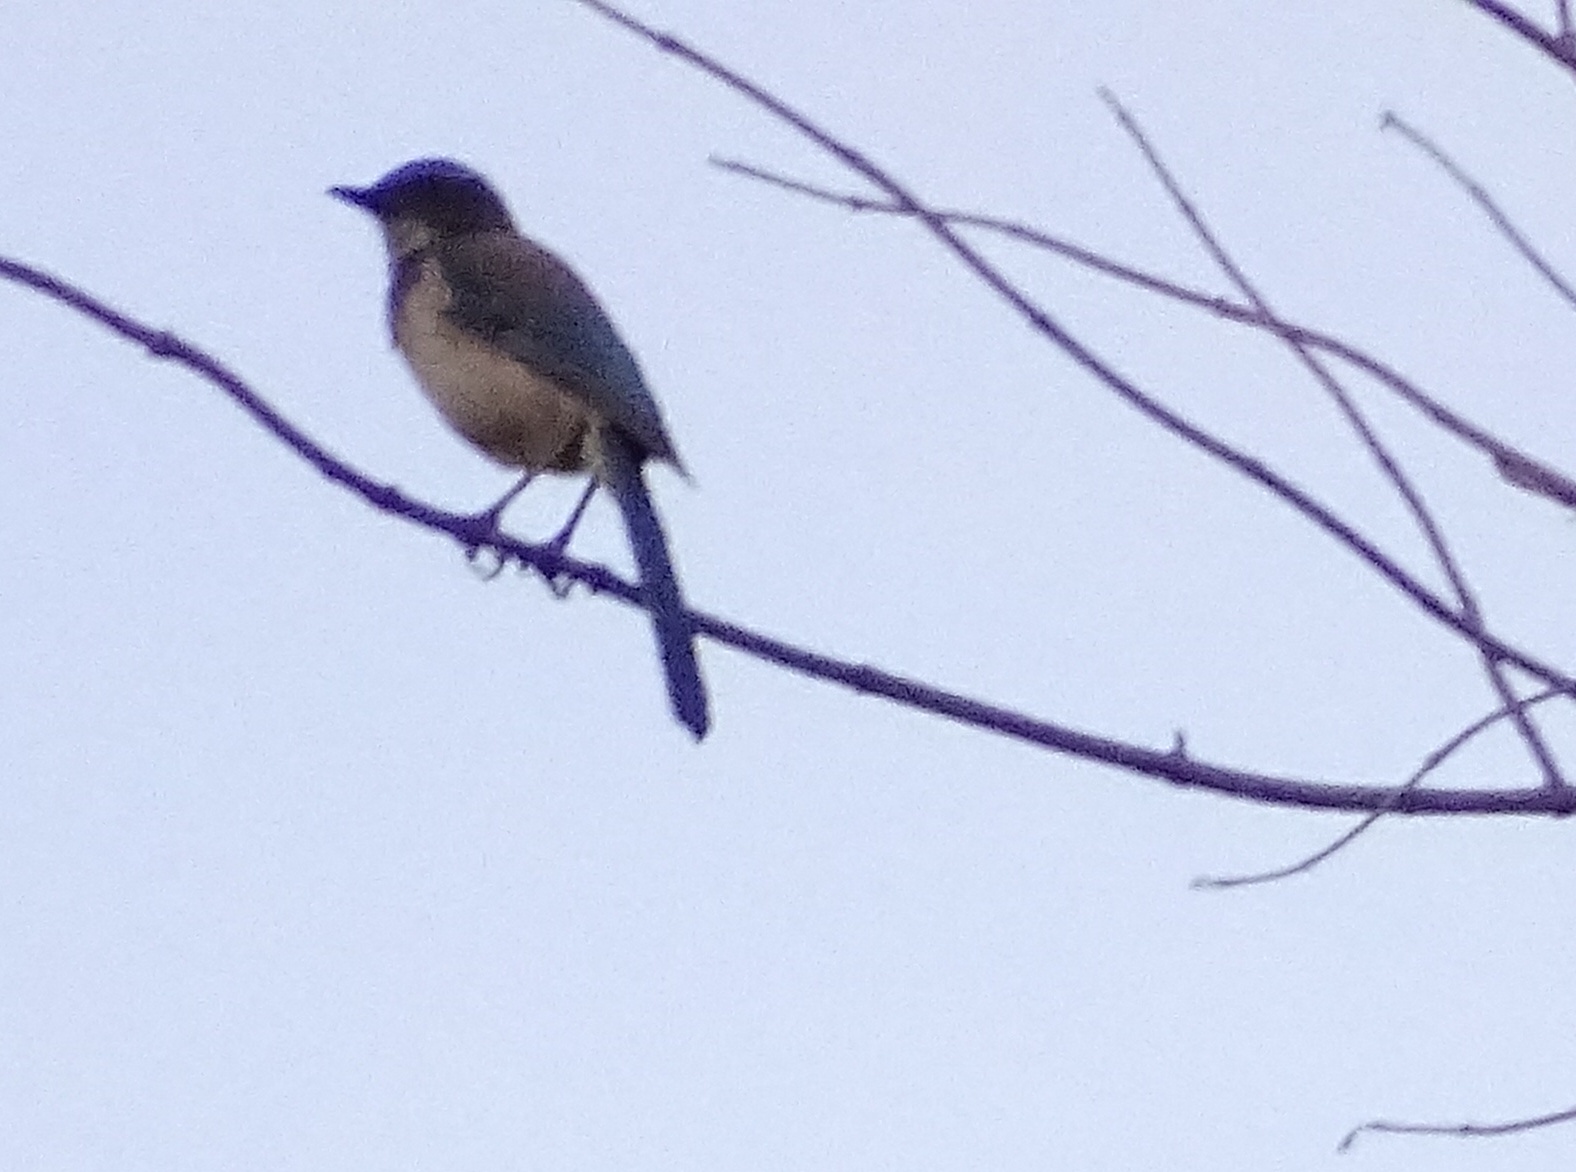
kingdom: Animalia
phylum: Chordata
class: Aves
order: Passeriformes
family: Corvidae
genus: Aphelocoma
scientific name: Aphelocoma californica
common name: California scrub-jay
